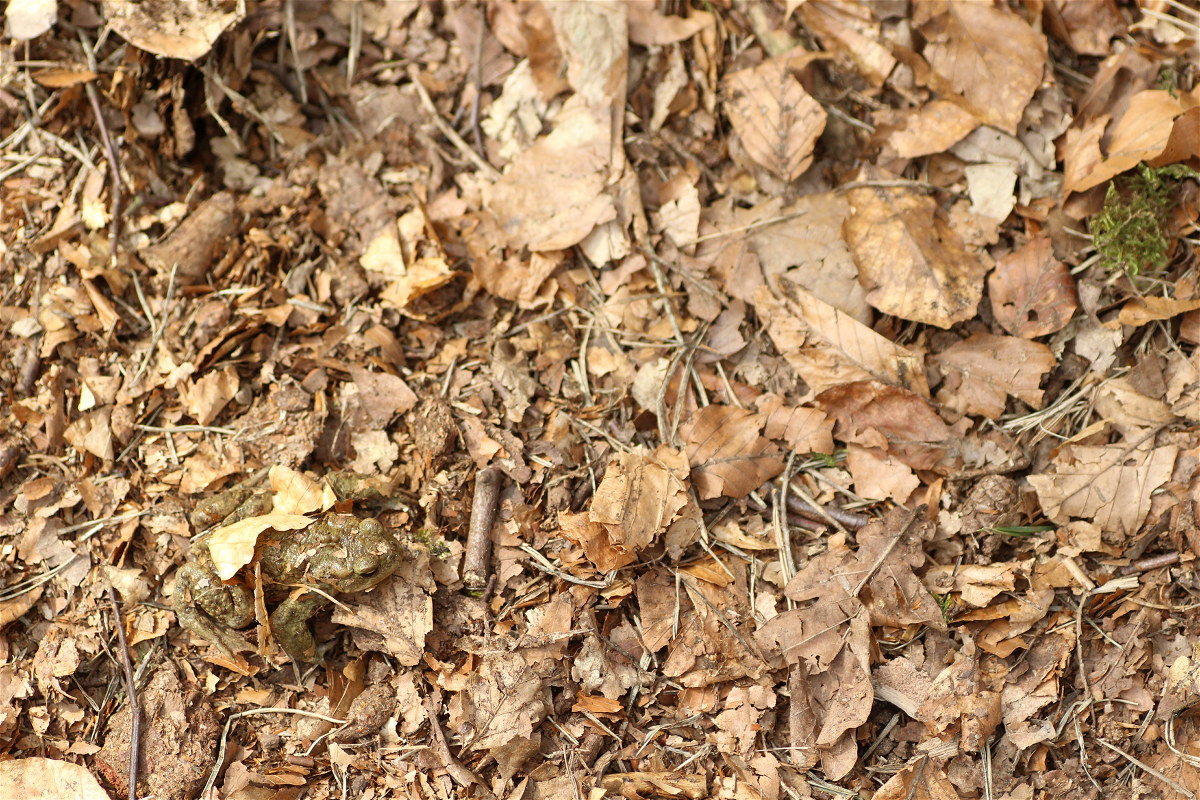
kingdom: Animalia
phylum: Chordata
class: Amphibia
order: Anura
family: Bufonidae
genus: Bufo
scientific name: Bufo bufo
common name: Common toad
